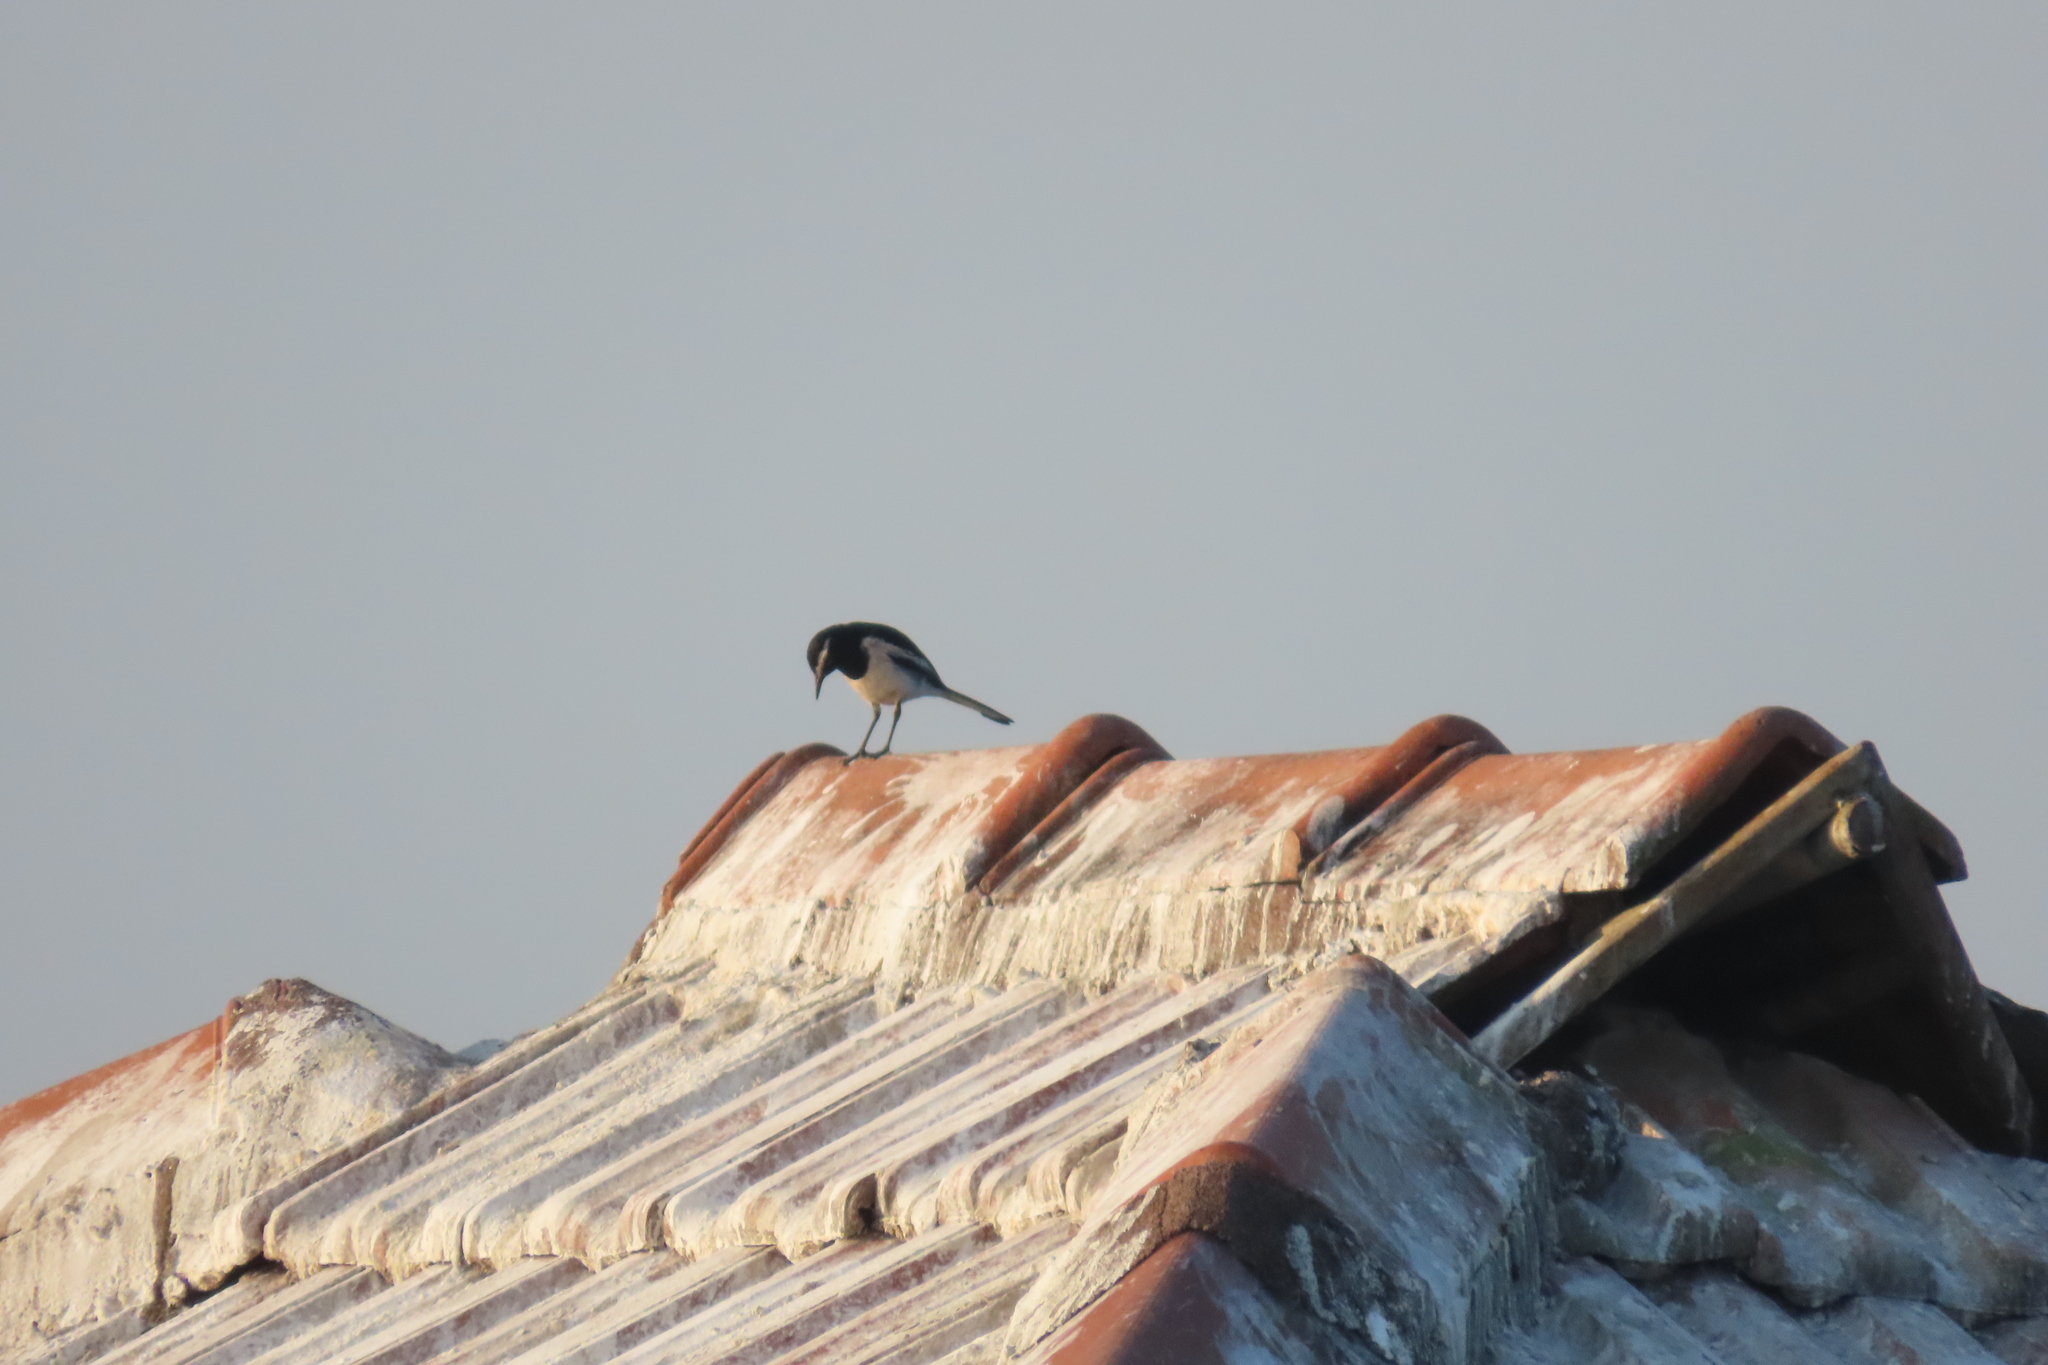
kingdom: Animalia
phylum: Chordata
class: Aves
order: Passeriformes
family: Motacillidae
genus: Motacilla
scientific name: Motacilla maderaspatensis
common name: White-browed wagtail
